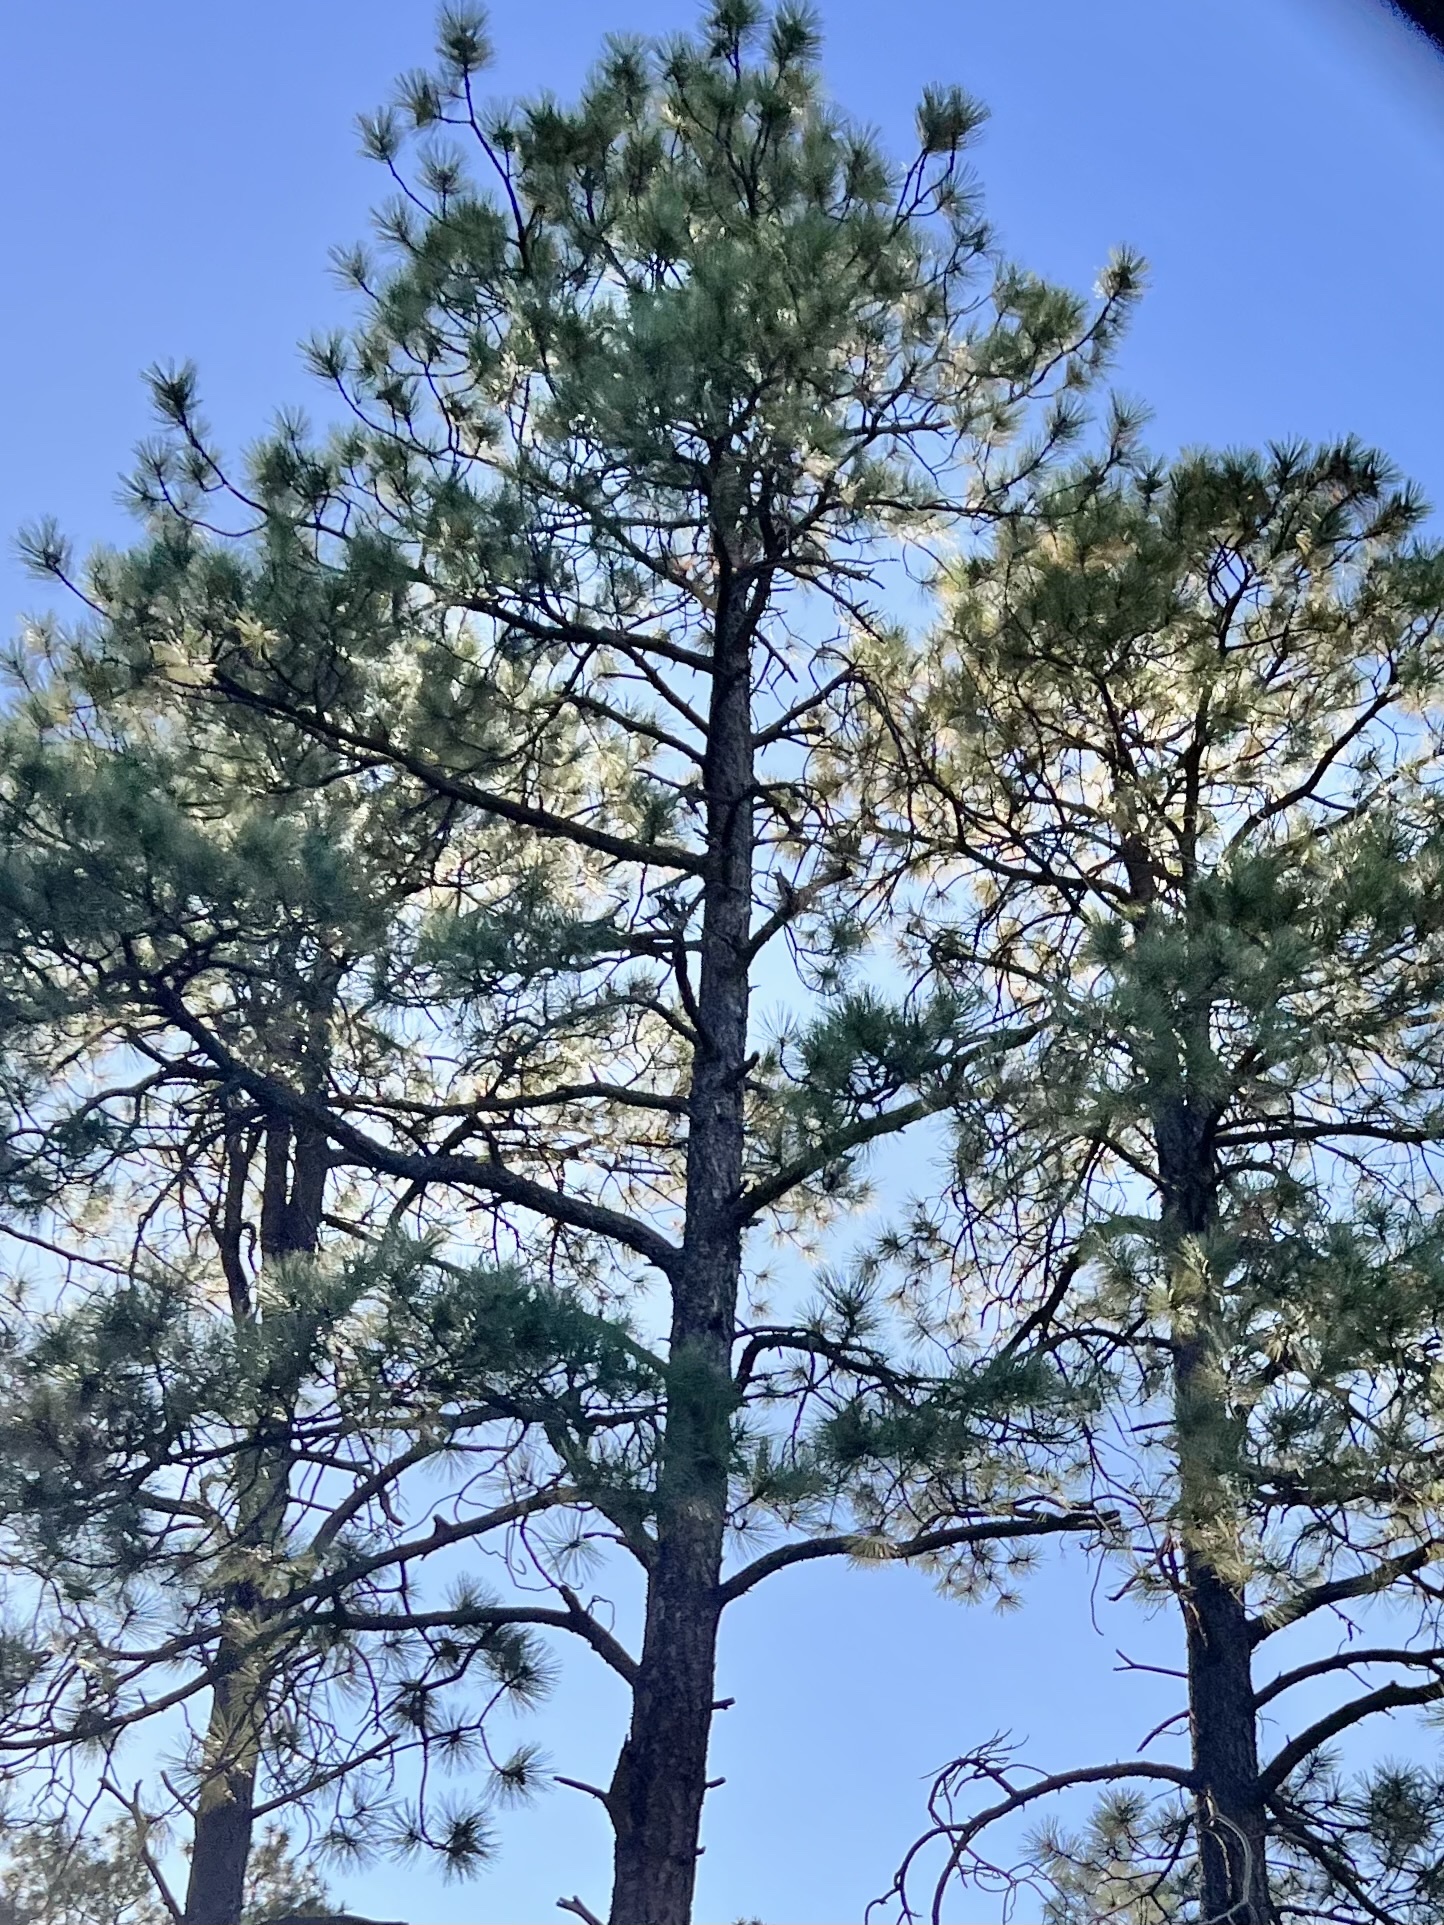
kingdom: Plantae
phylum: Tracheophyta
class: Pinopsida
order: Pinales
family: Pinaceae
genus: Pinus
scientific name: Pinus ponderosa
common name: Western yellow-pine
